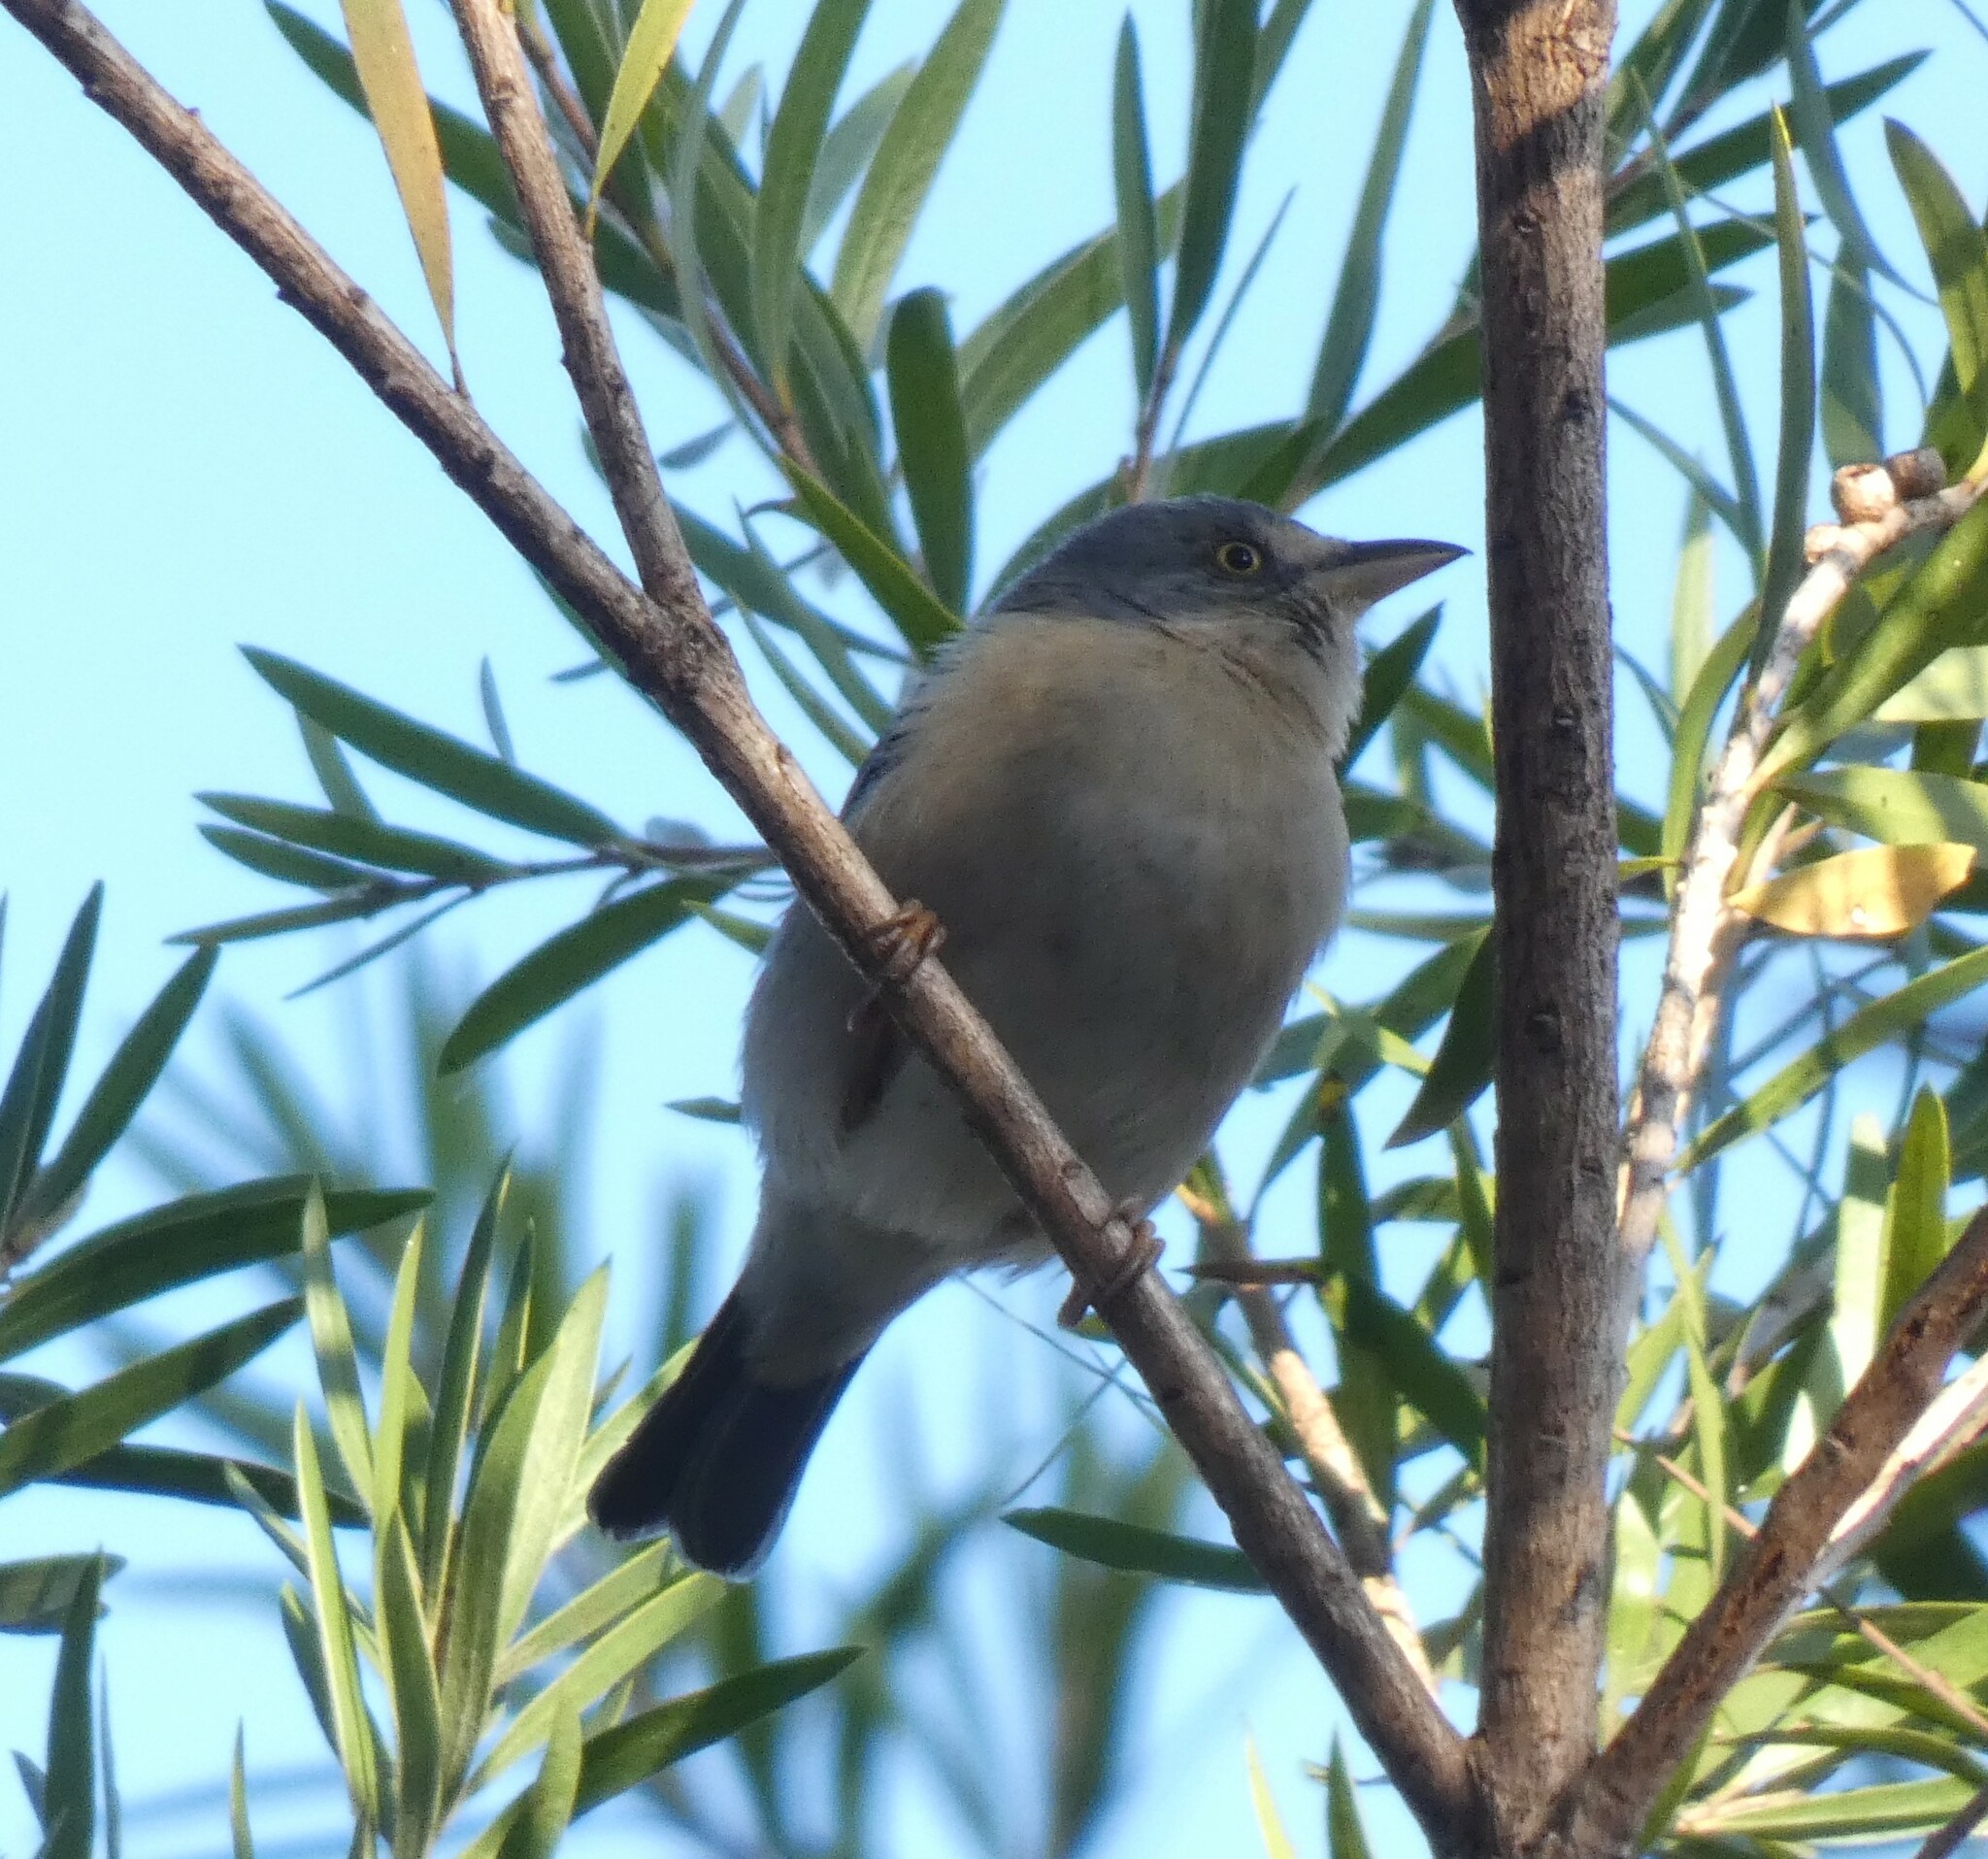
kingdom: Animalia
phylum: Chordata
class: Aves
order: Passeriformes
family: Thraupidae
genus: Nemosia
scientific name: Nemosia pileata
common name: Hooded tanager
